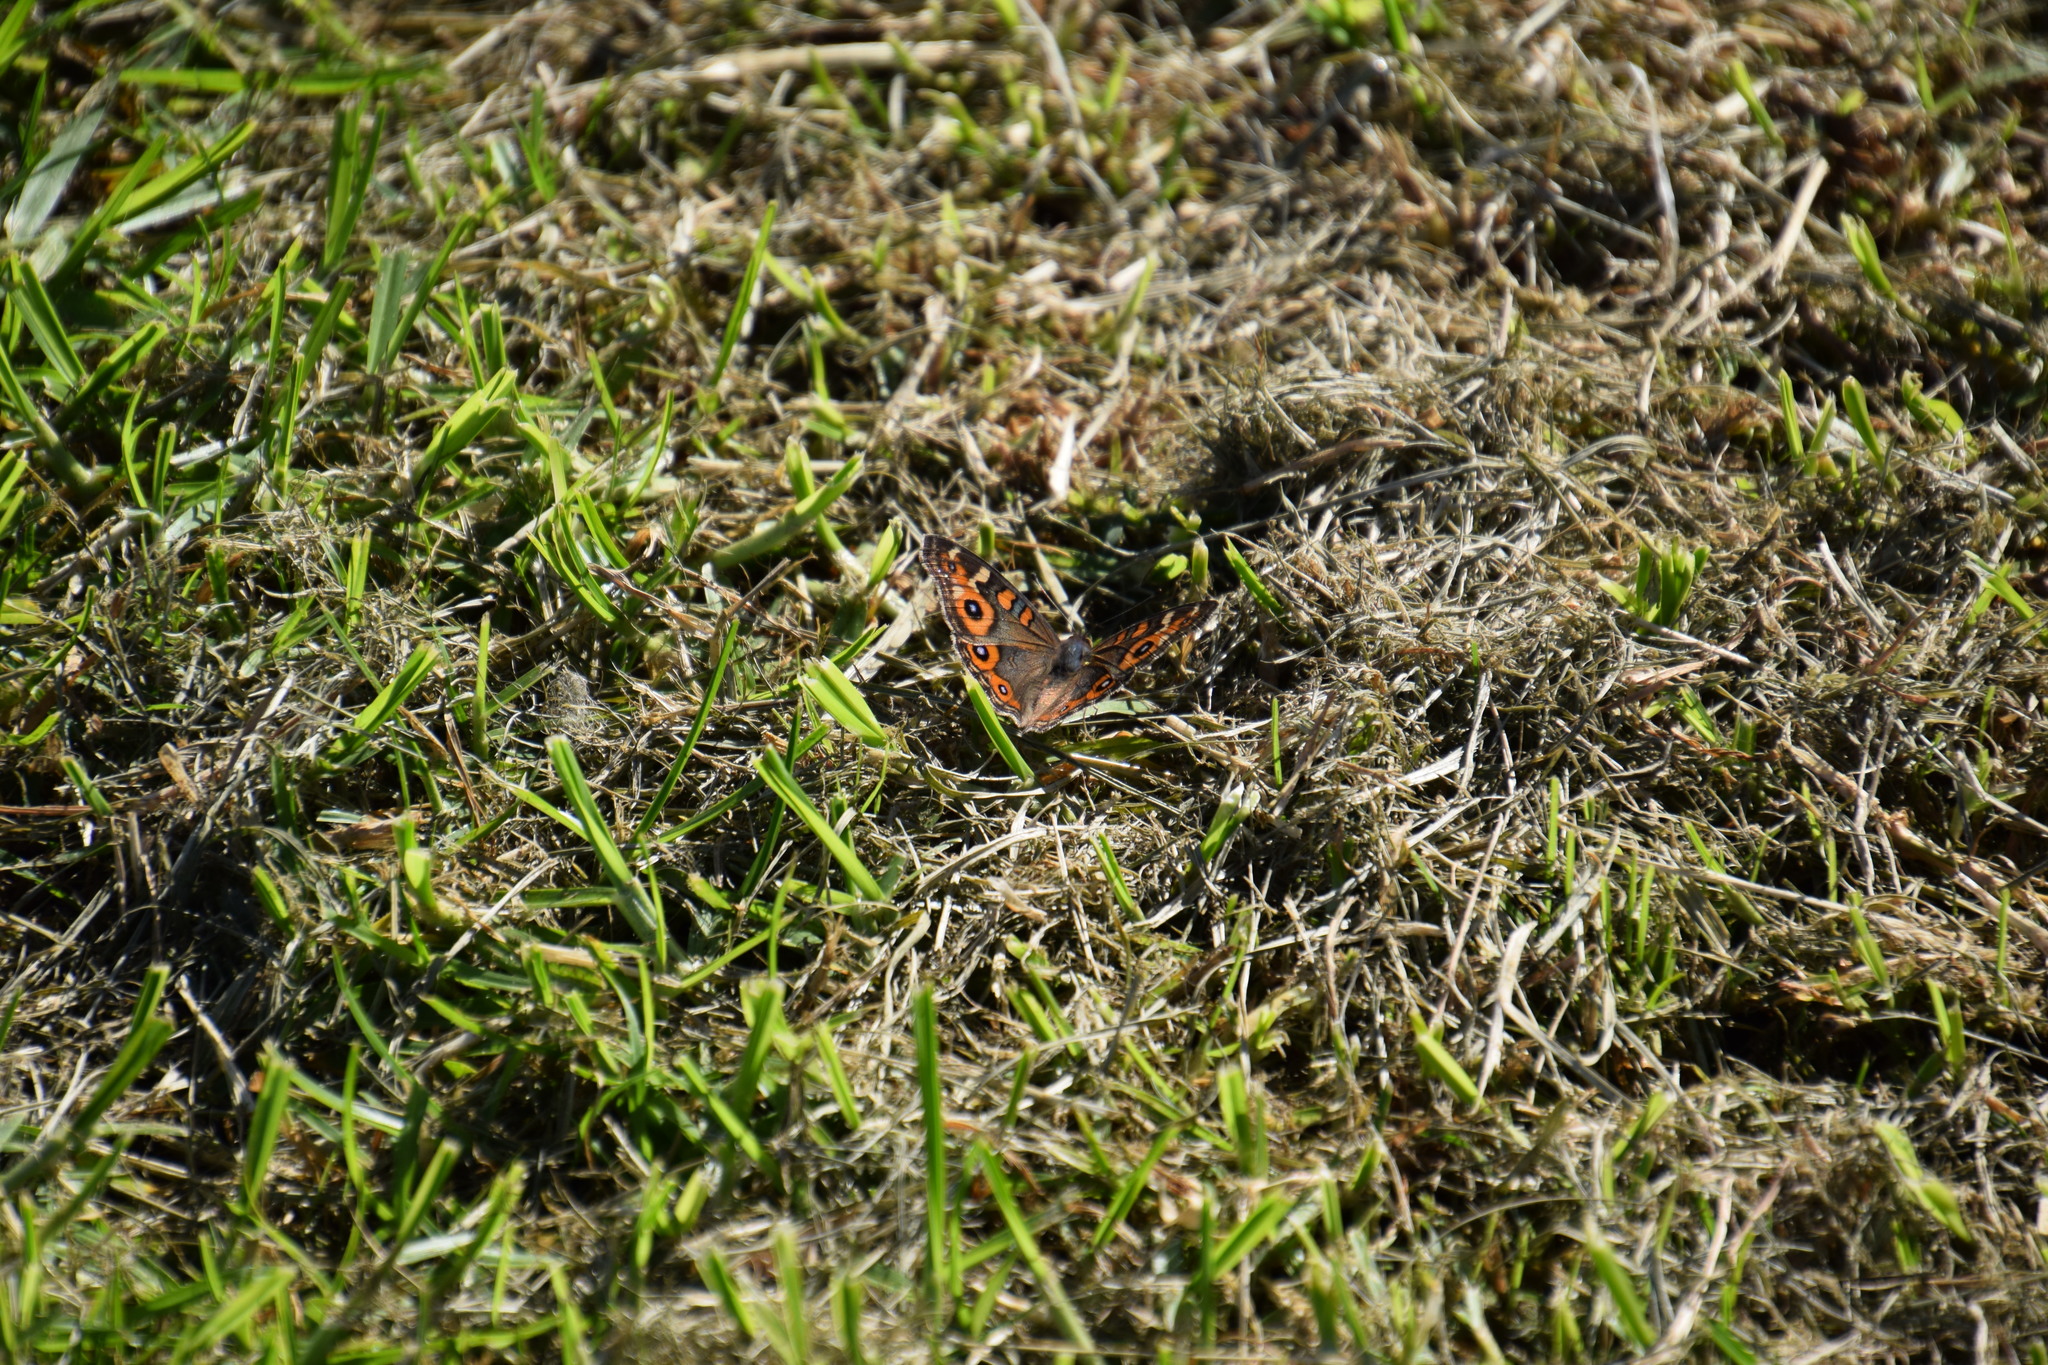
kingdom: Animalia
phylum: Arthropoda
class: Insecta
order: Lepidoptera
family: Nymphalidae
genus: Junonia
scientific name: Junonia villida
